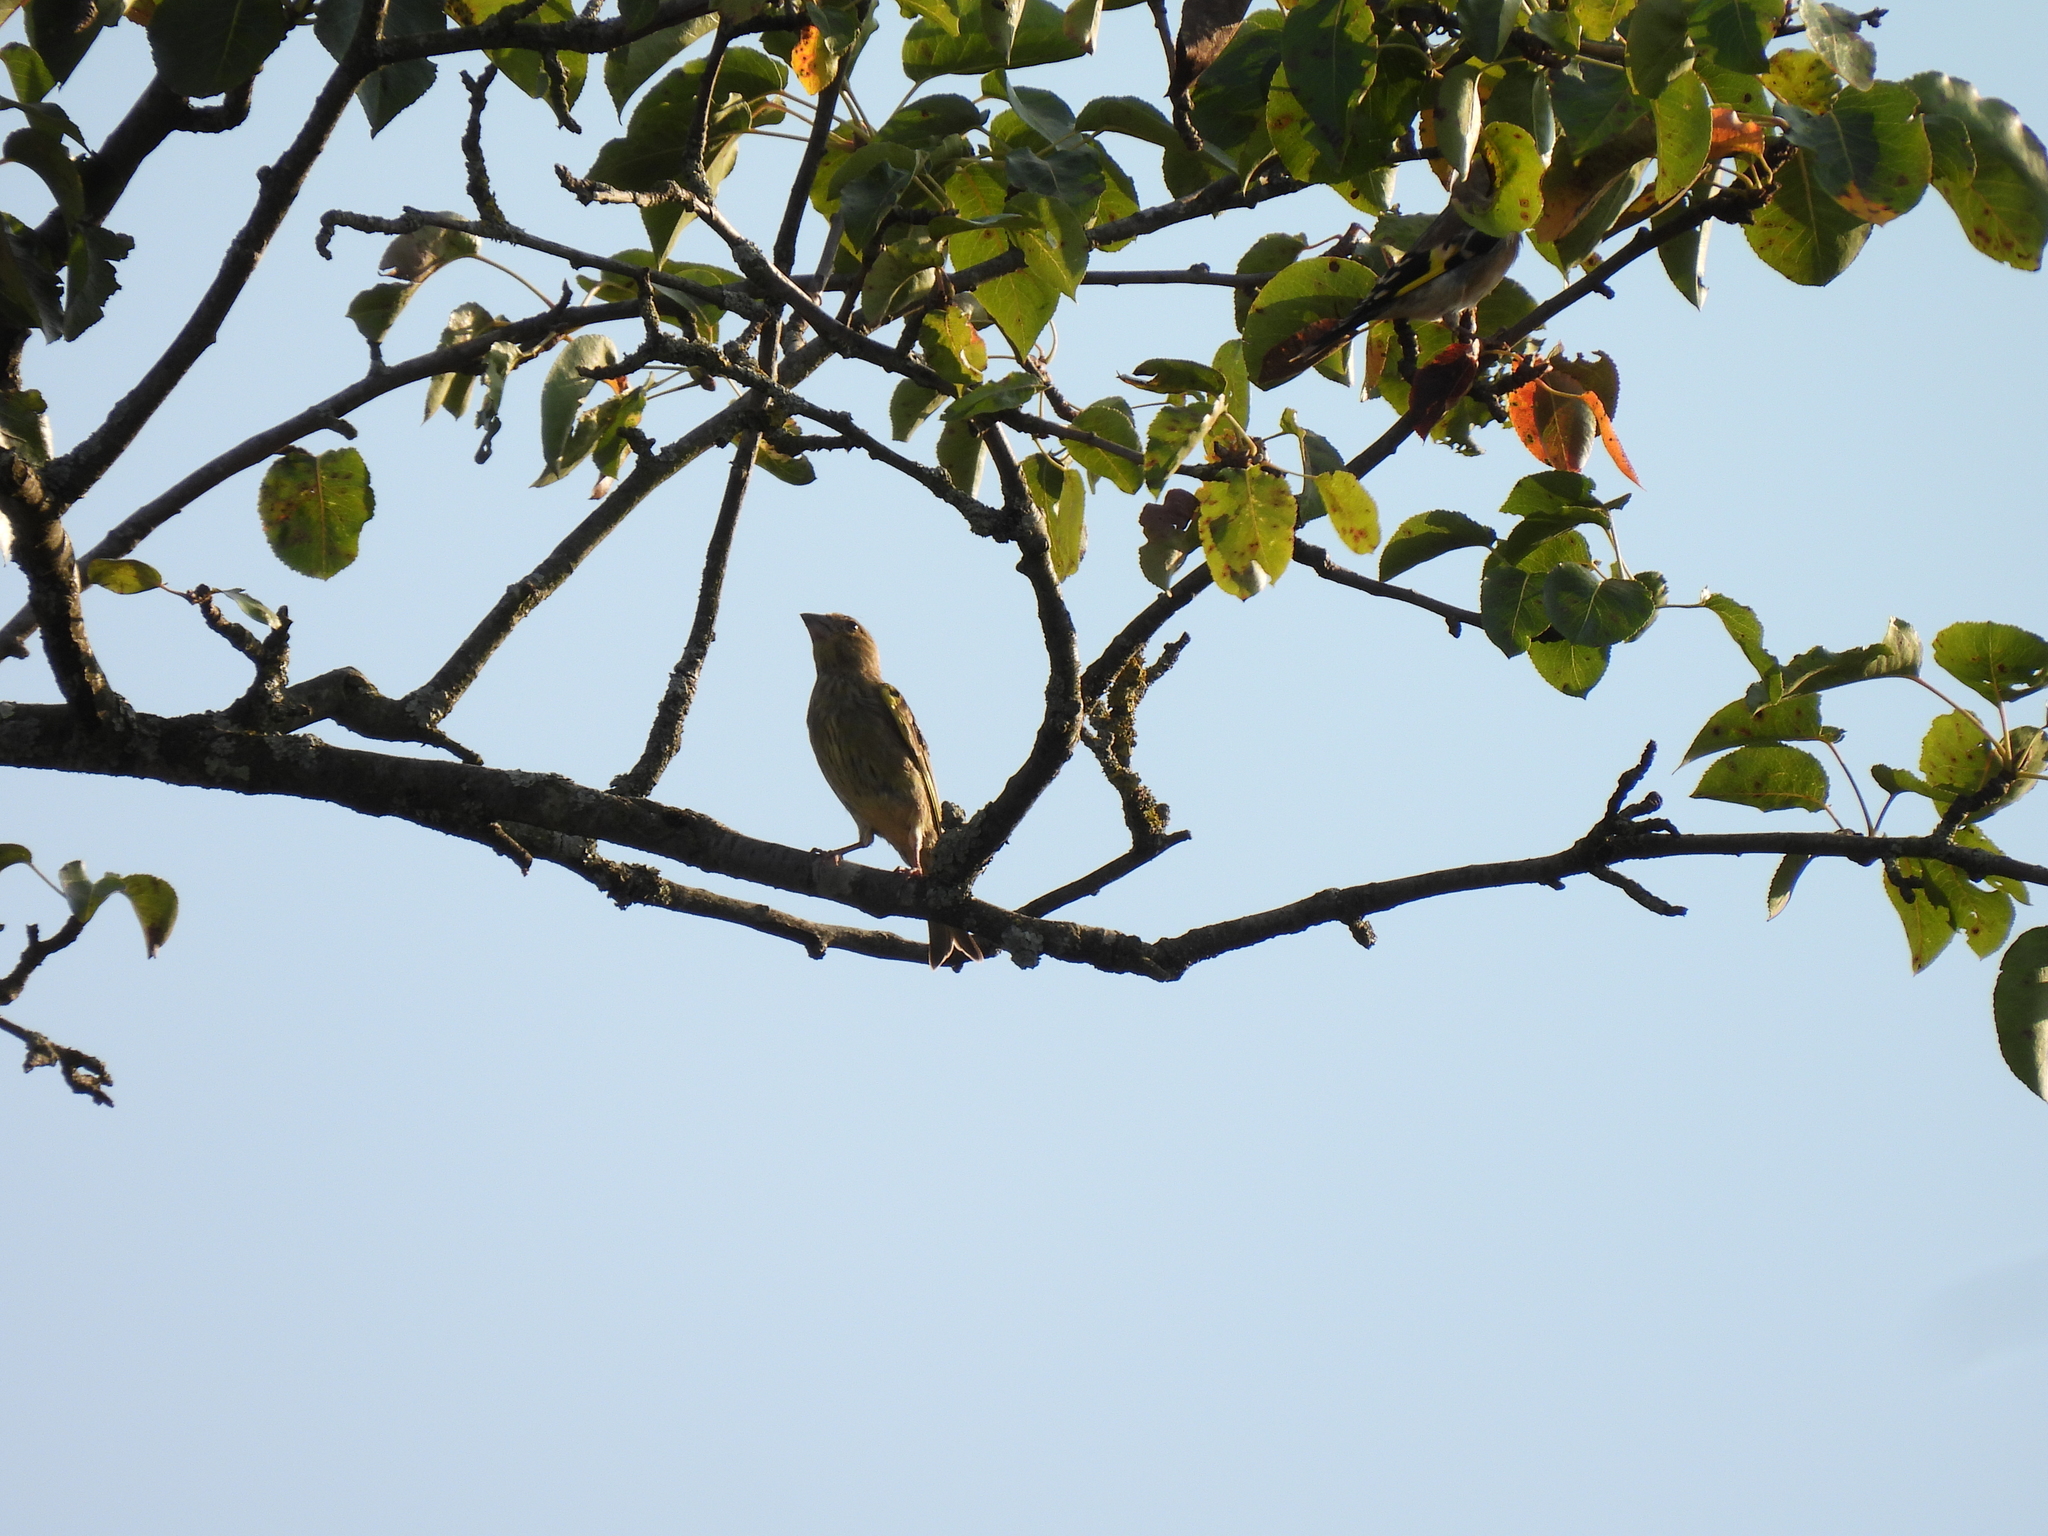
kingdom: Plantae
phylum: Tracheophyta
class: Liliopsida
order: Poales
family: Poaceae
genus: Chloris
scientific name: Chloris chloris
